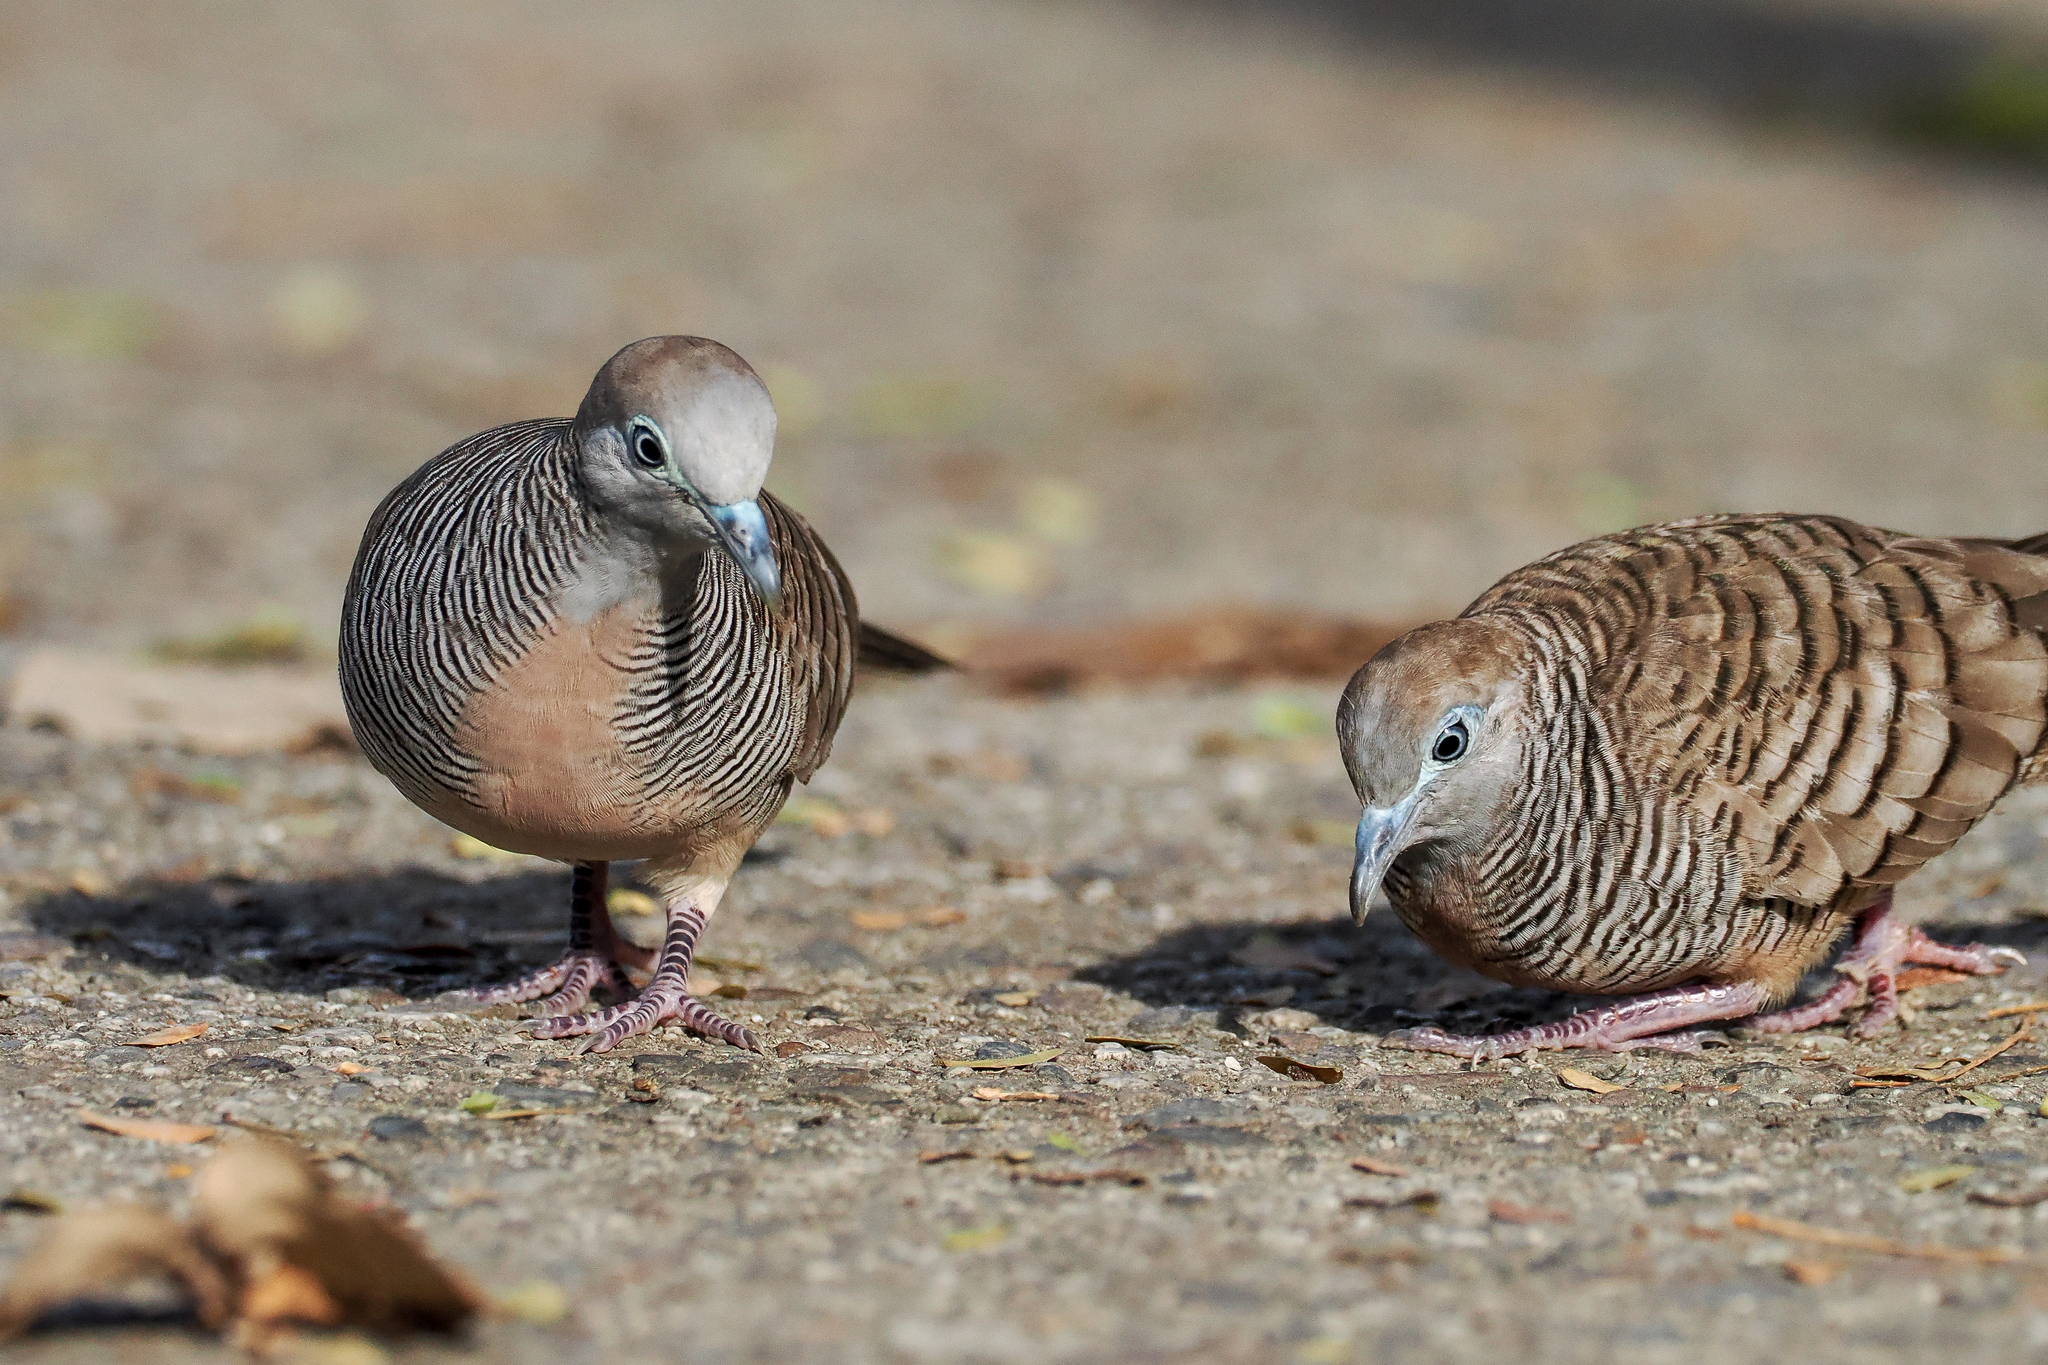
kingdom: Animalia
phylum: Chordata
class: Aves
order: Columbiformes
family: Columbidae
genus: Geopelia
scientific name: Geopelia striata
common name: Zebra dove
